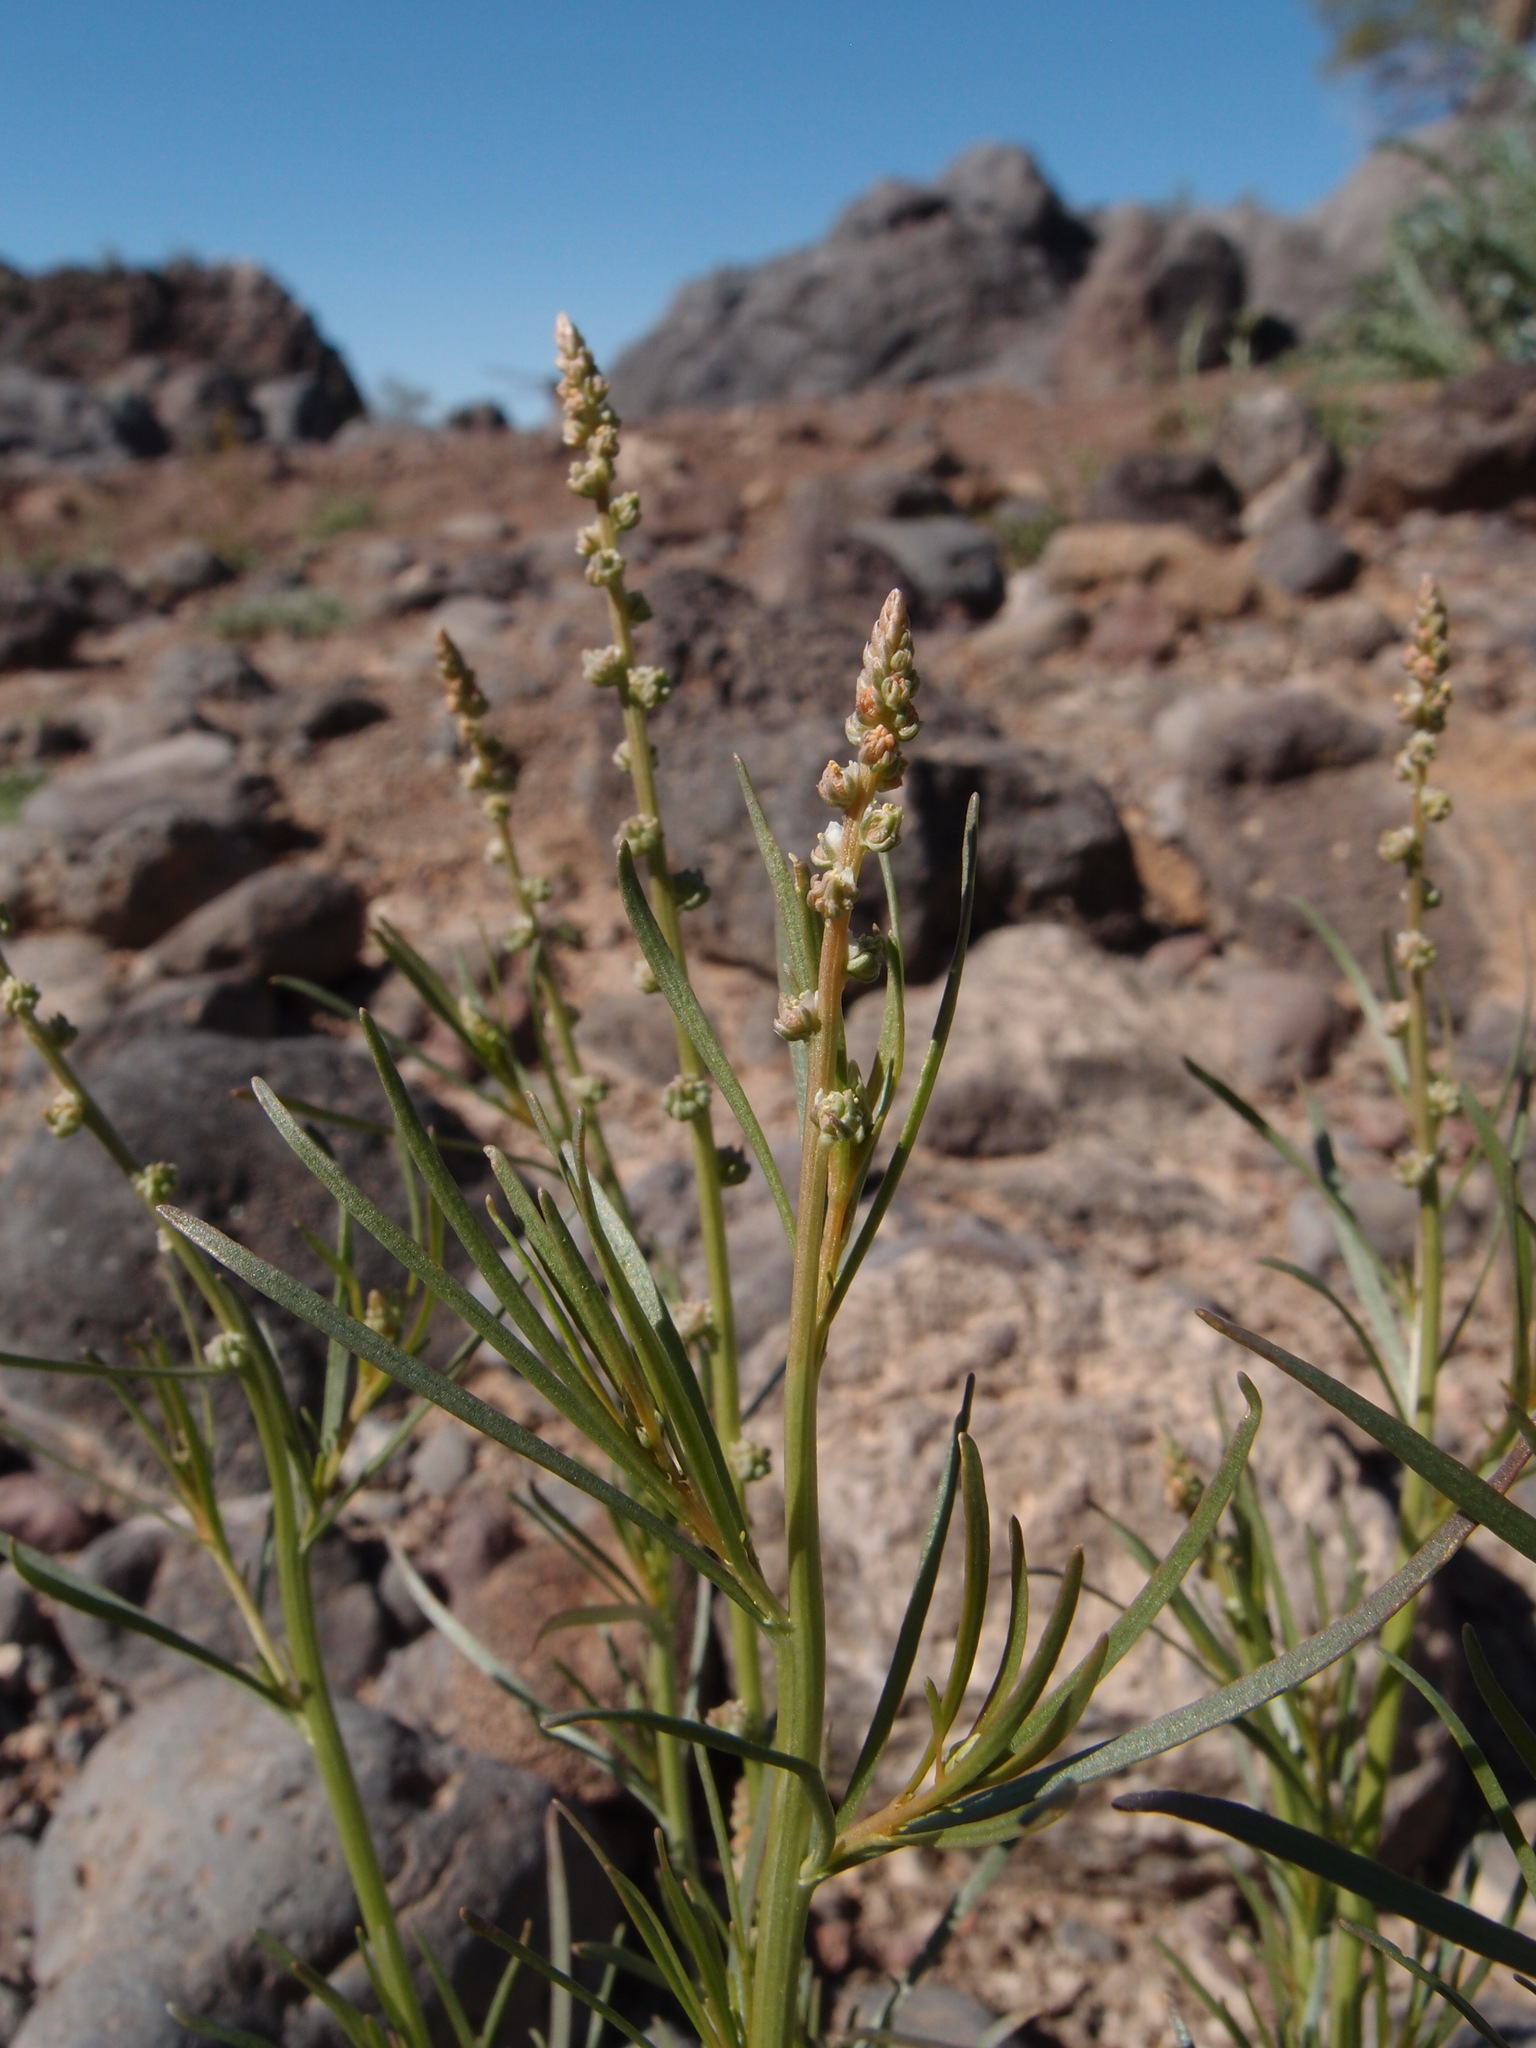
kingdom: Plantae
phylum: Tracheophyta
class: Magnoliopsida
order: Brassicales
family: Resedaceae
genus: Oligomeris
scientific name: Oligomeris linifolia
